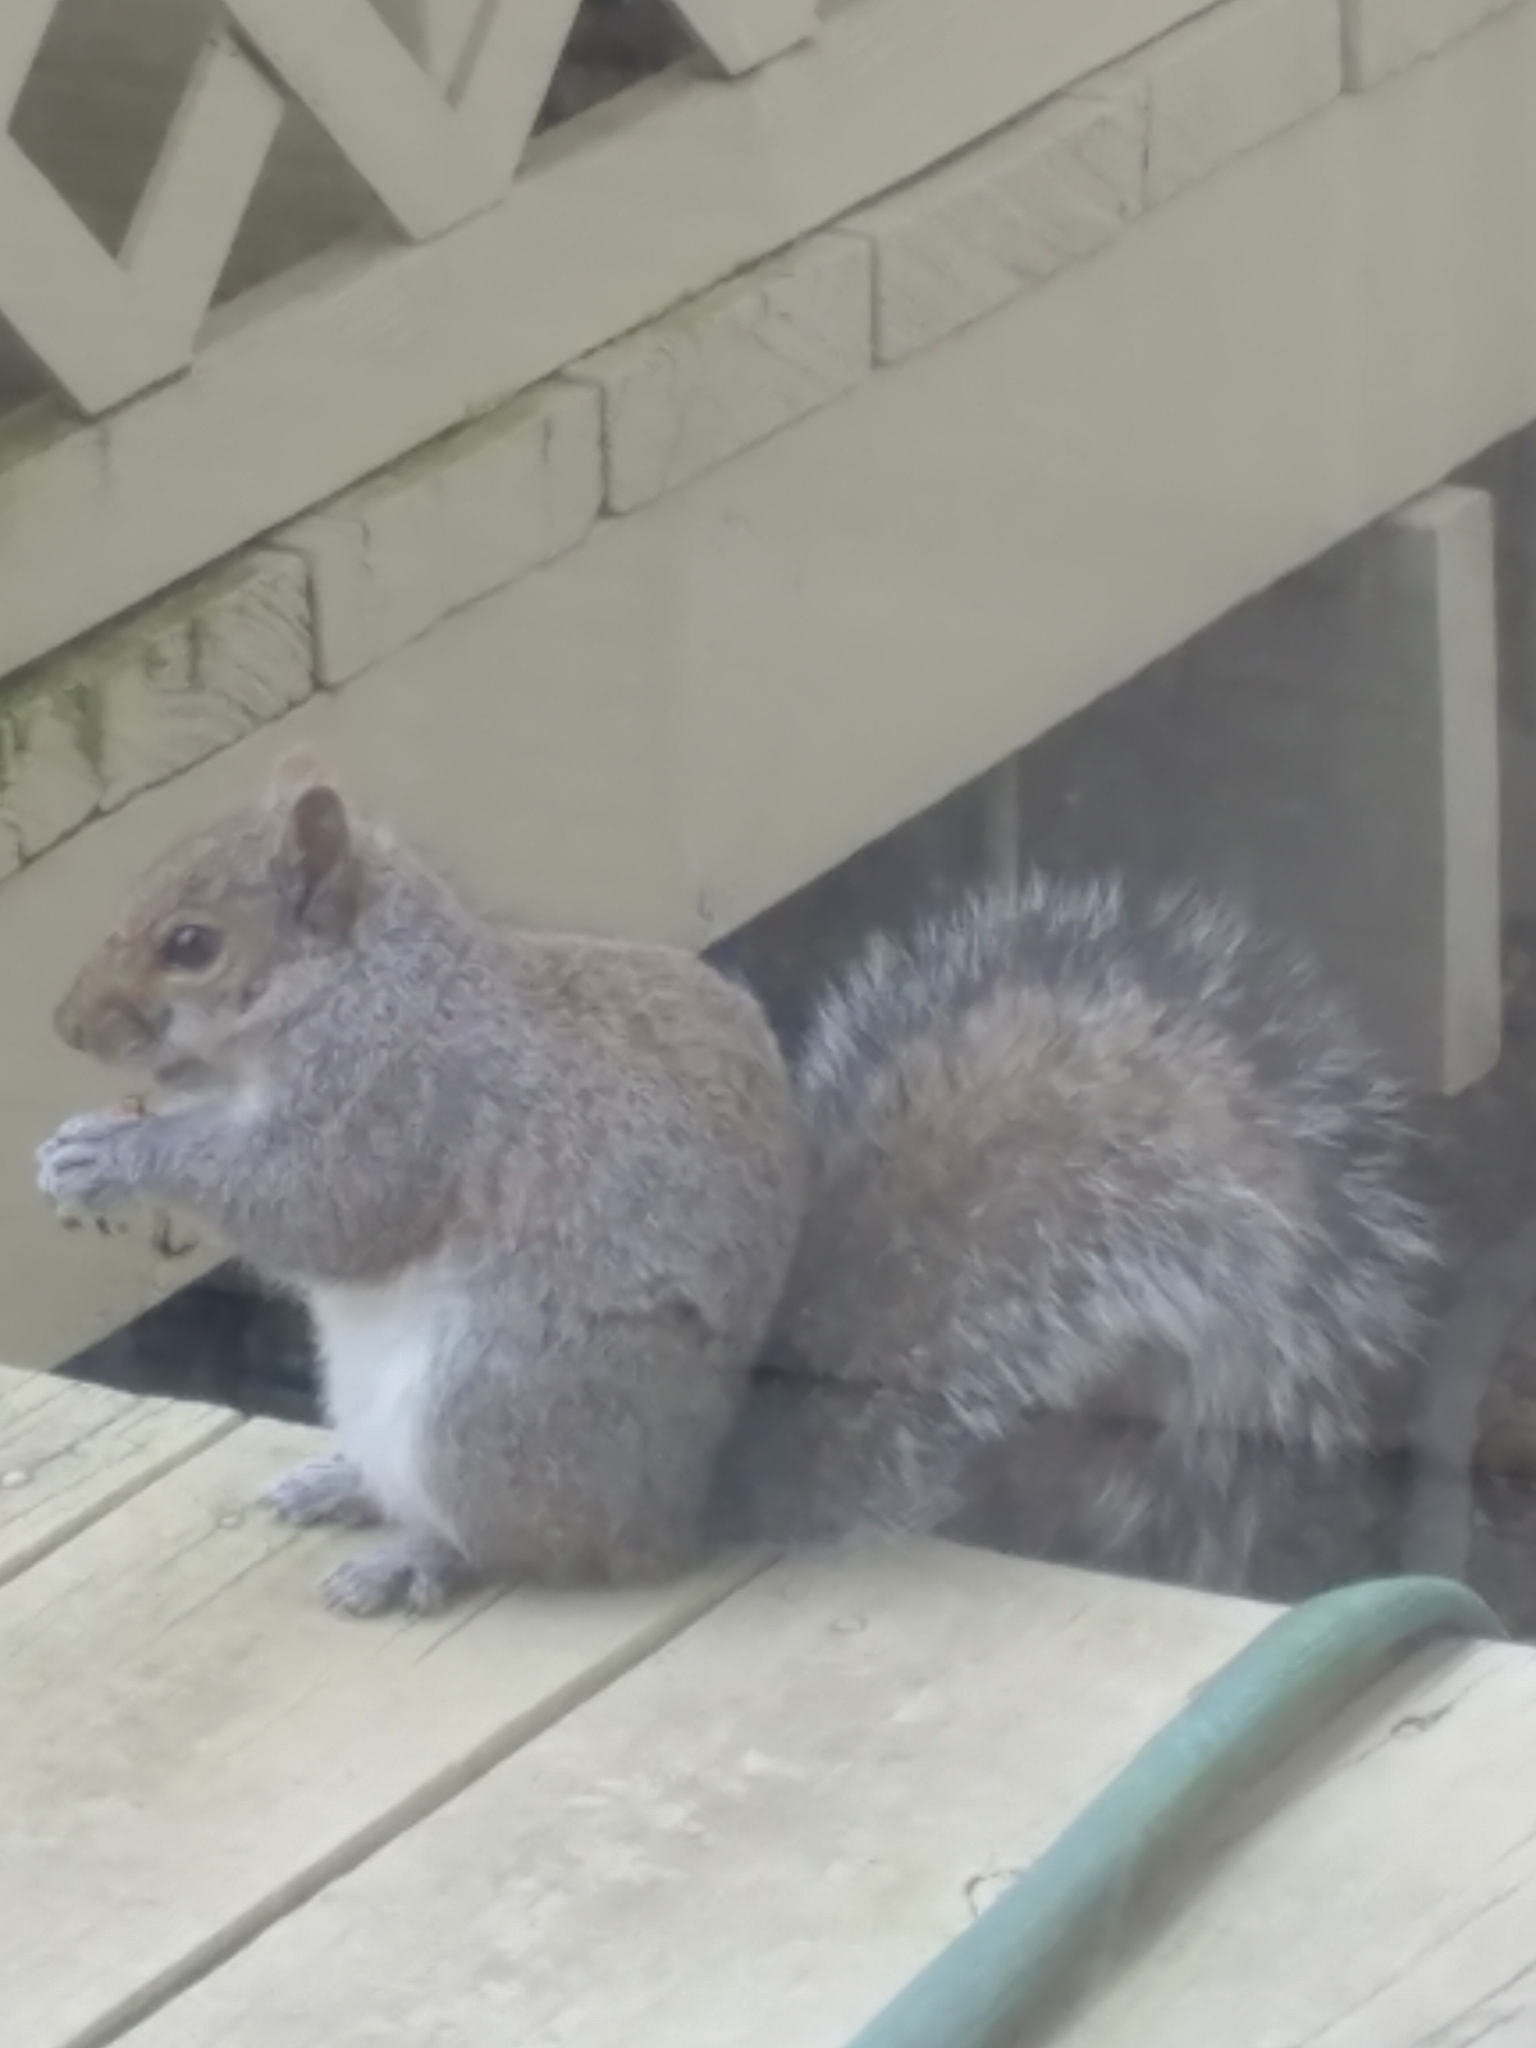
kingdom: Animalia
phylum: Chordata
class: Mammalia
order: Rodentia
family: Sciuridae
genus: Sciurus
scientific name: Sciurus carolinensis
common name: Eastern gray squirrel
